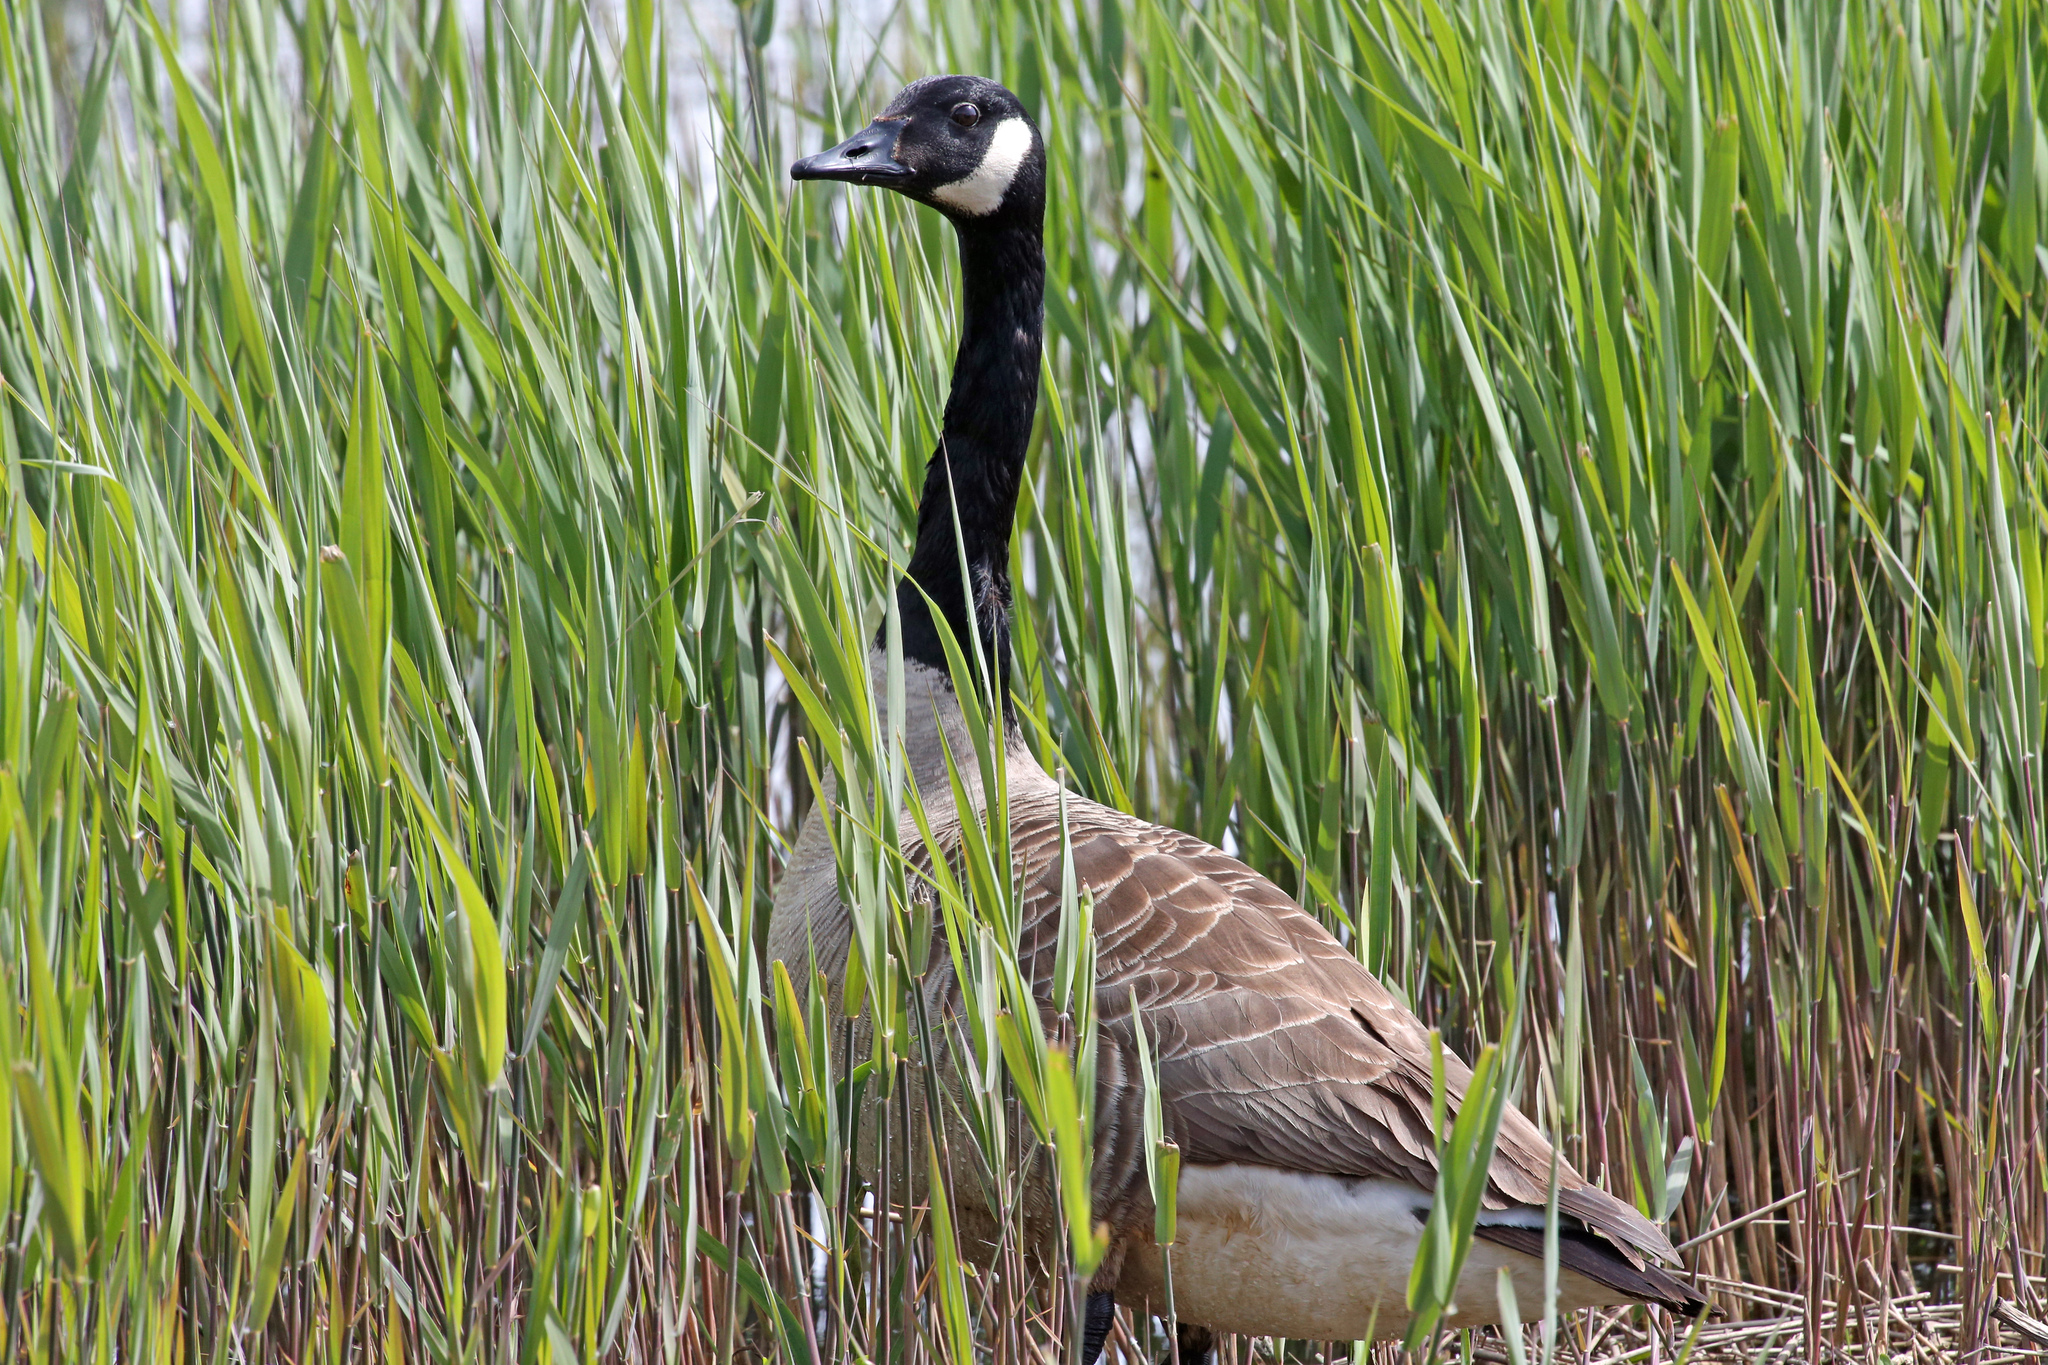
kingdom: Animalia
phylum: Chordata
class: Aves
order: Anseriformes
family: Anatidae
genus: Branta
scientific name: Branta canadensis
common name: Canada goose
